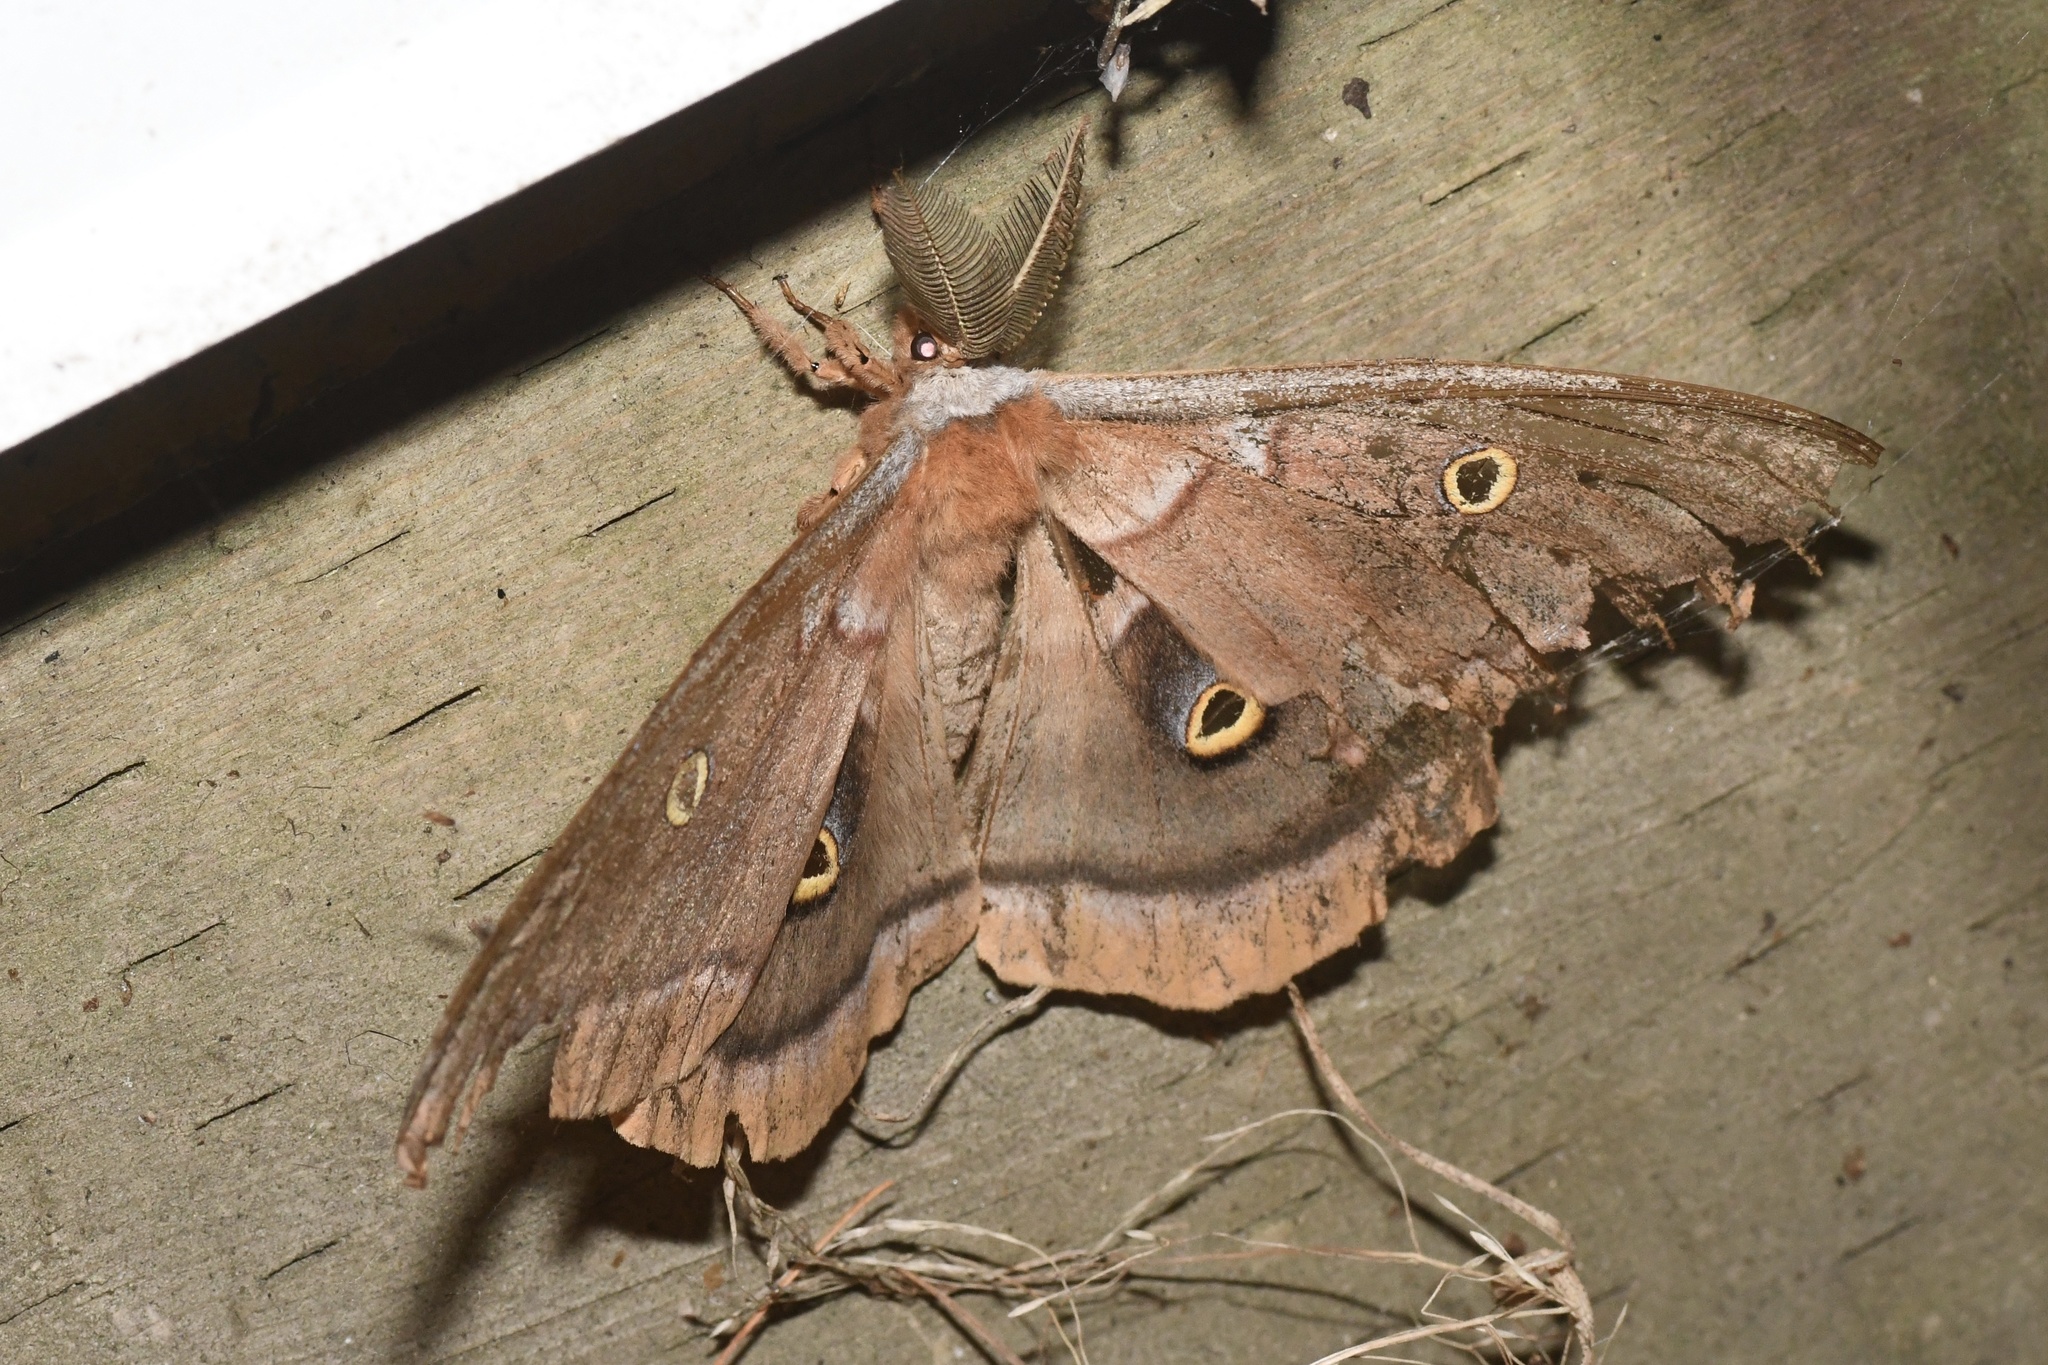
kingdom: Animalia
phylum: Arthropoda
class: Insecta
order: Lepidoptera
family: Saturniidae
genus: Antheraea
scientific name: Antheraea polyphemus
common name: Polyphemus moth
